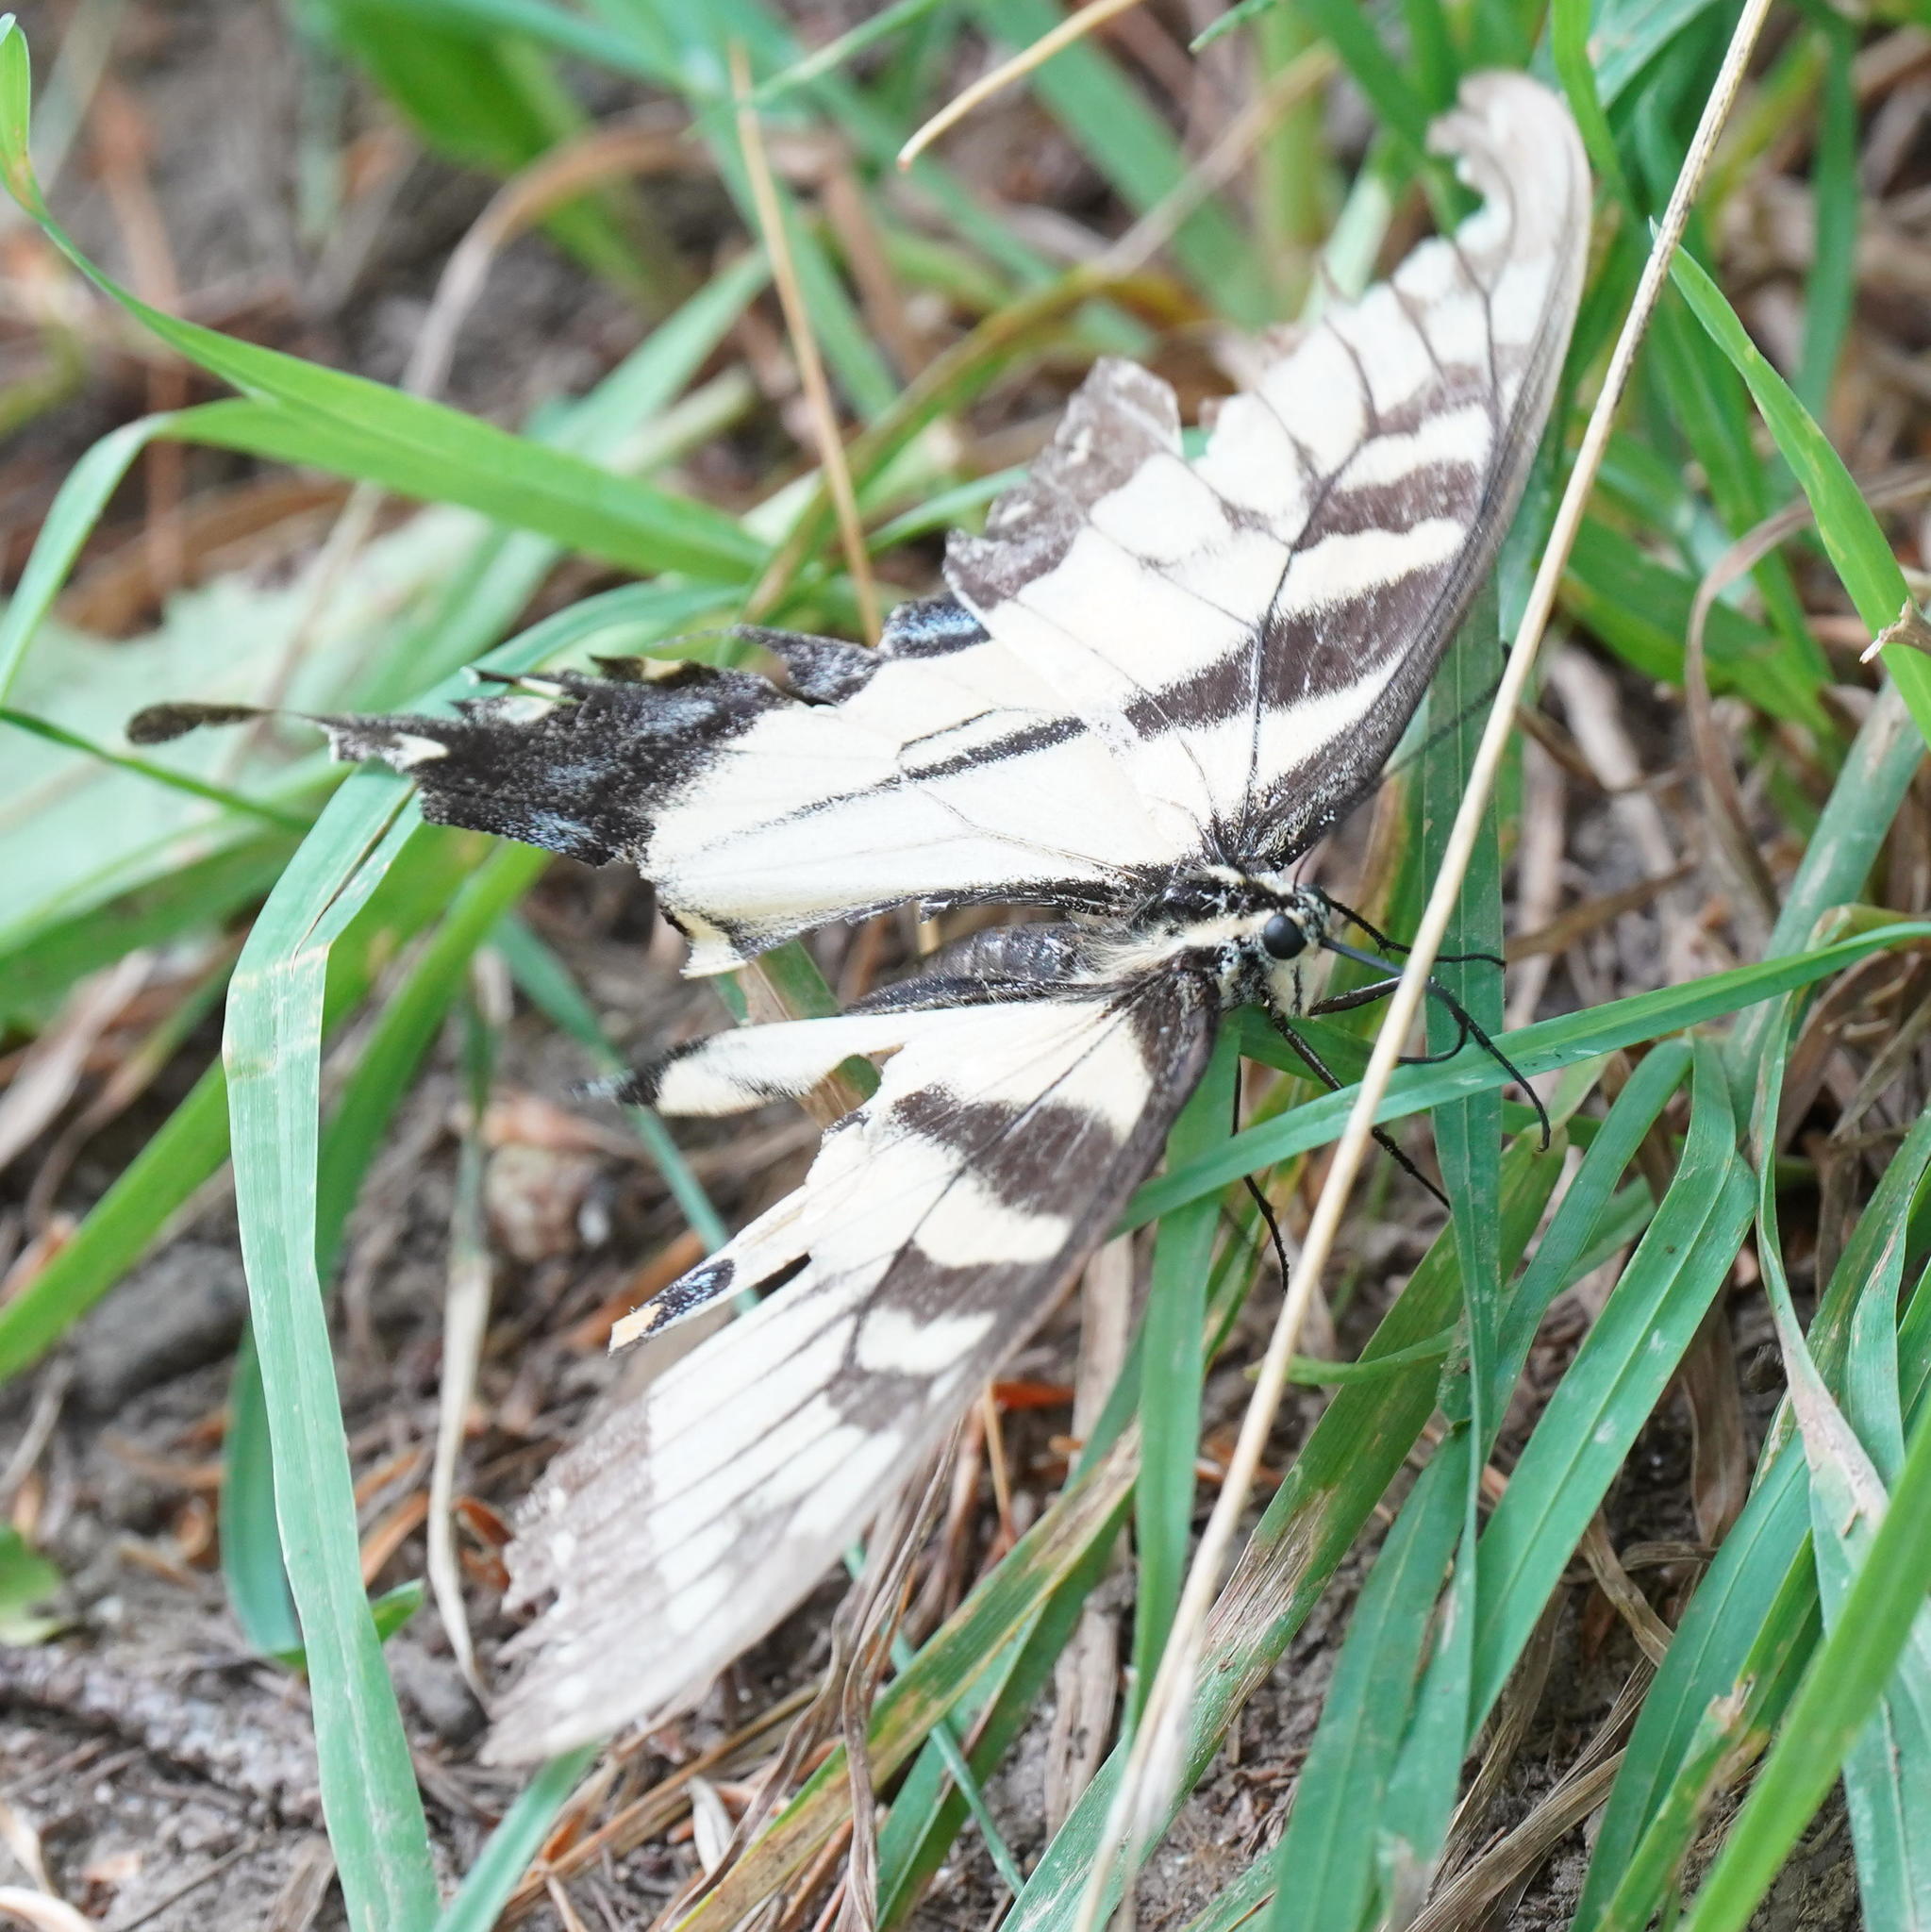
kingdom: Animalia
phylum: Arthropoda
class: Insecta
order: Lepidoptera
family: Papilionidae
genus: Papilio
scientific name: Papilio glaucus
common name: Tiger swallowtail
